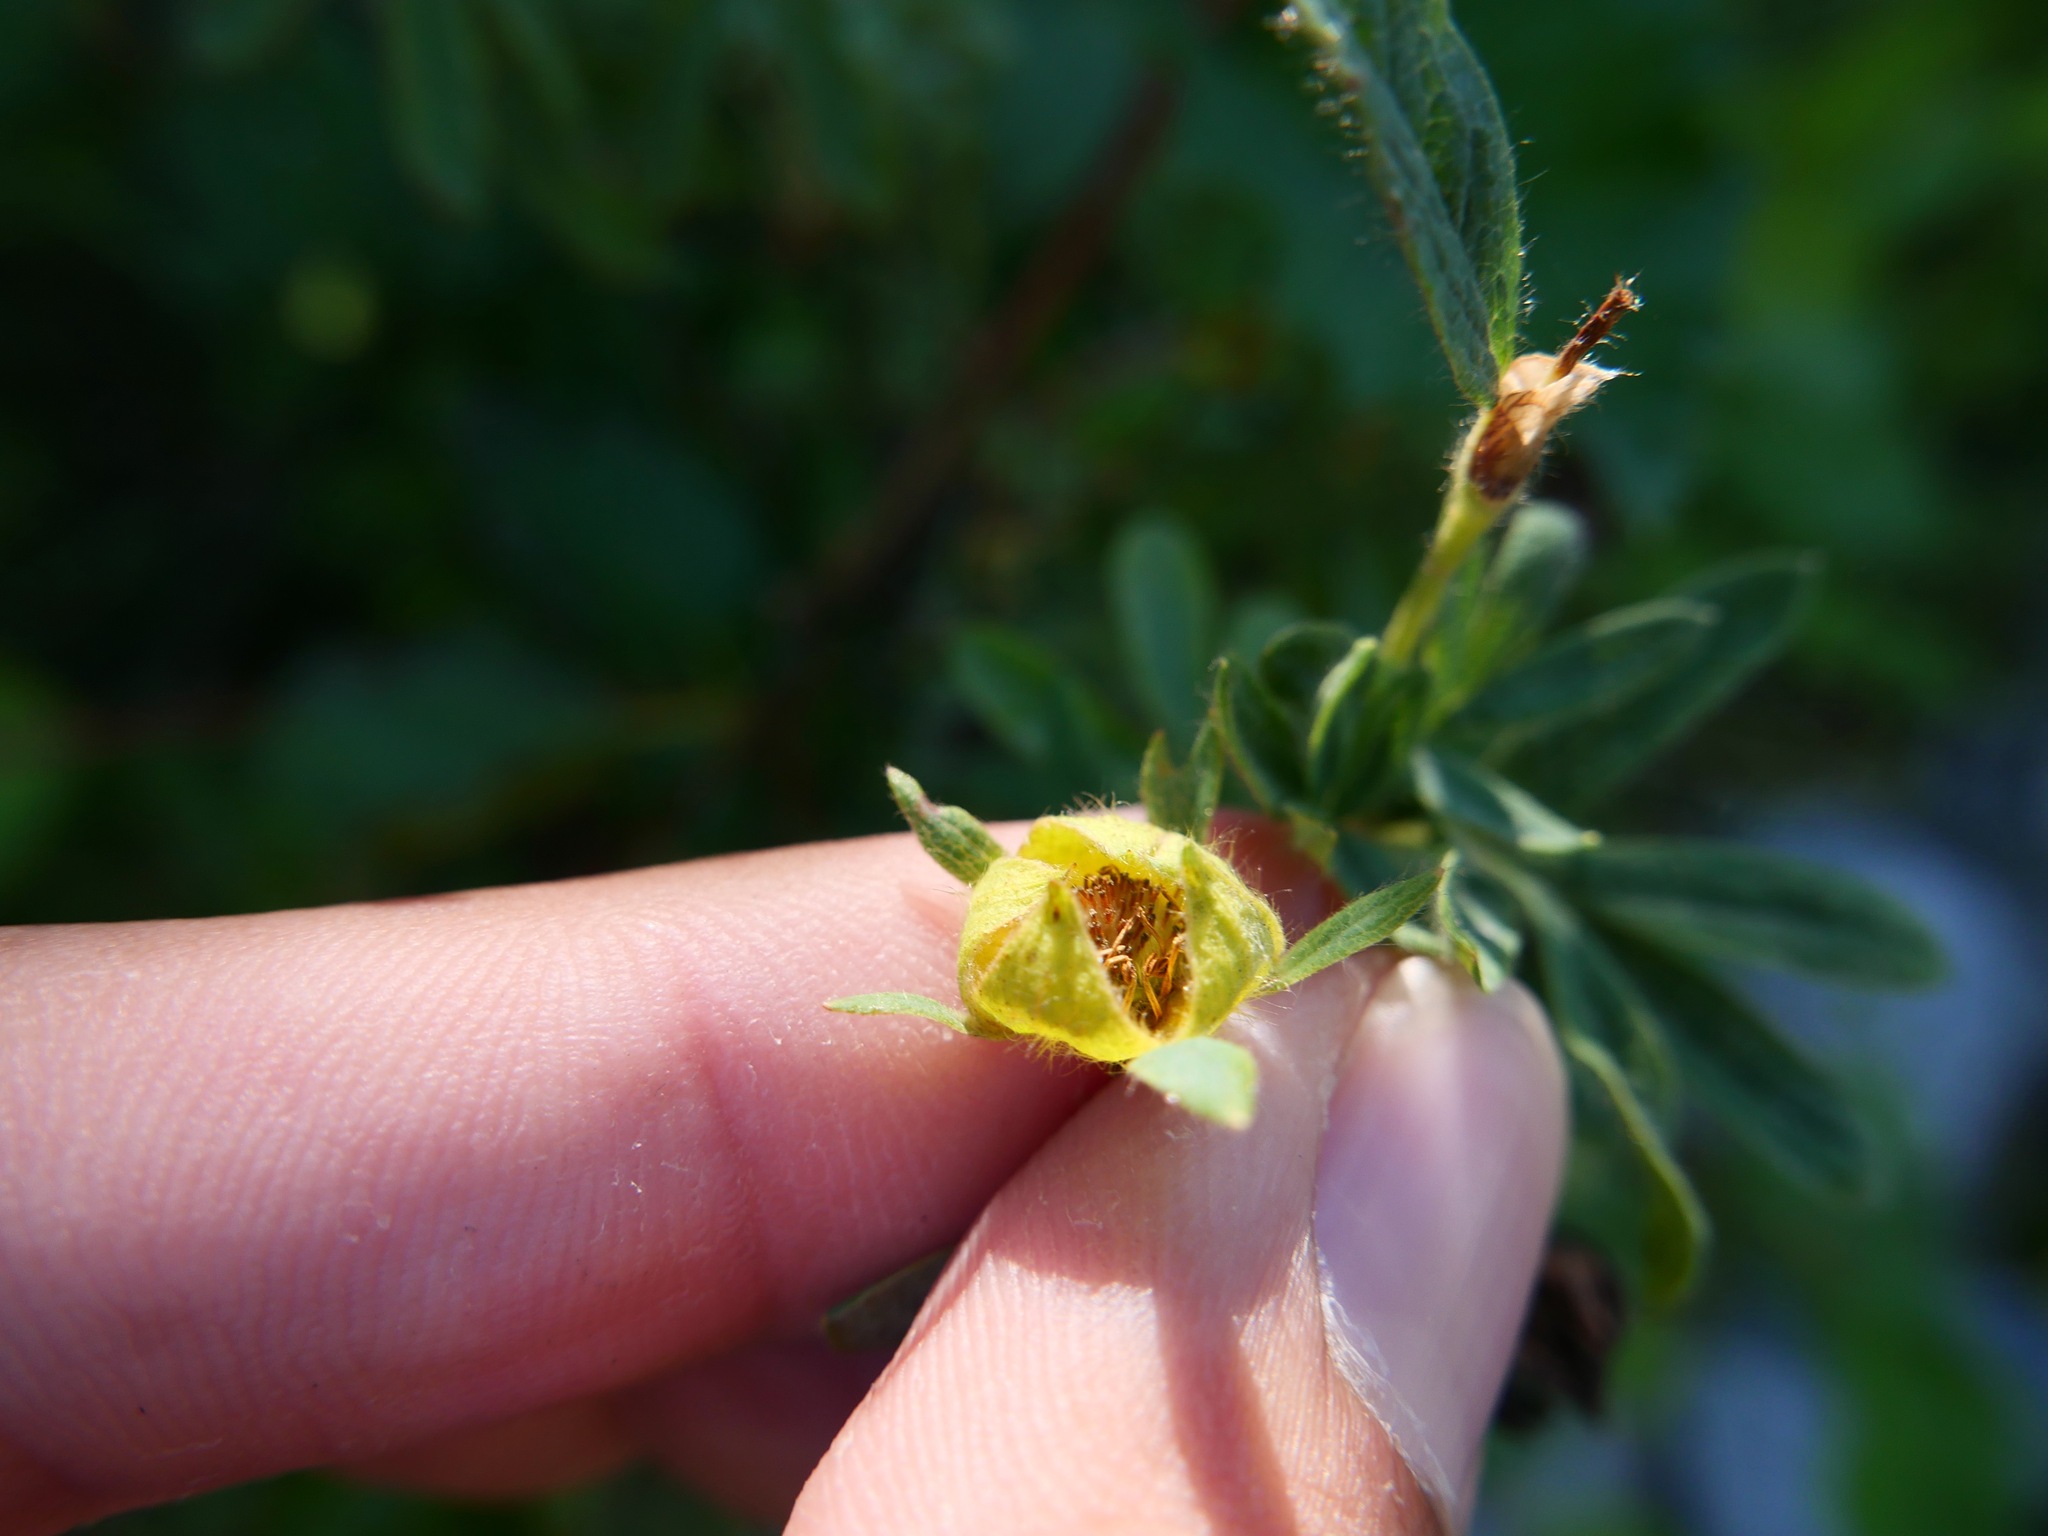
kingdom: Plantae
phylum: Tracheophyta
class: Magnoliopsida
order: Rosales
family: Rosaceae
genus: Dasiphora
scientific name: Dasiphora fruticosa
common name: Shrubby cinquefoil
